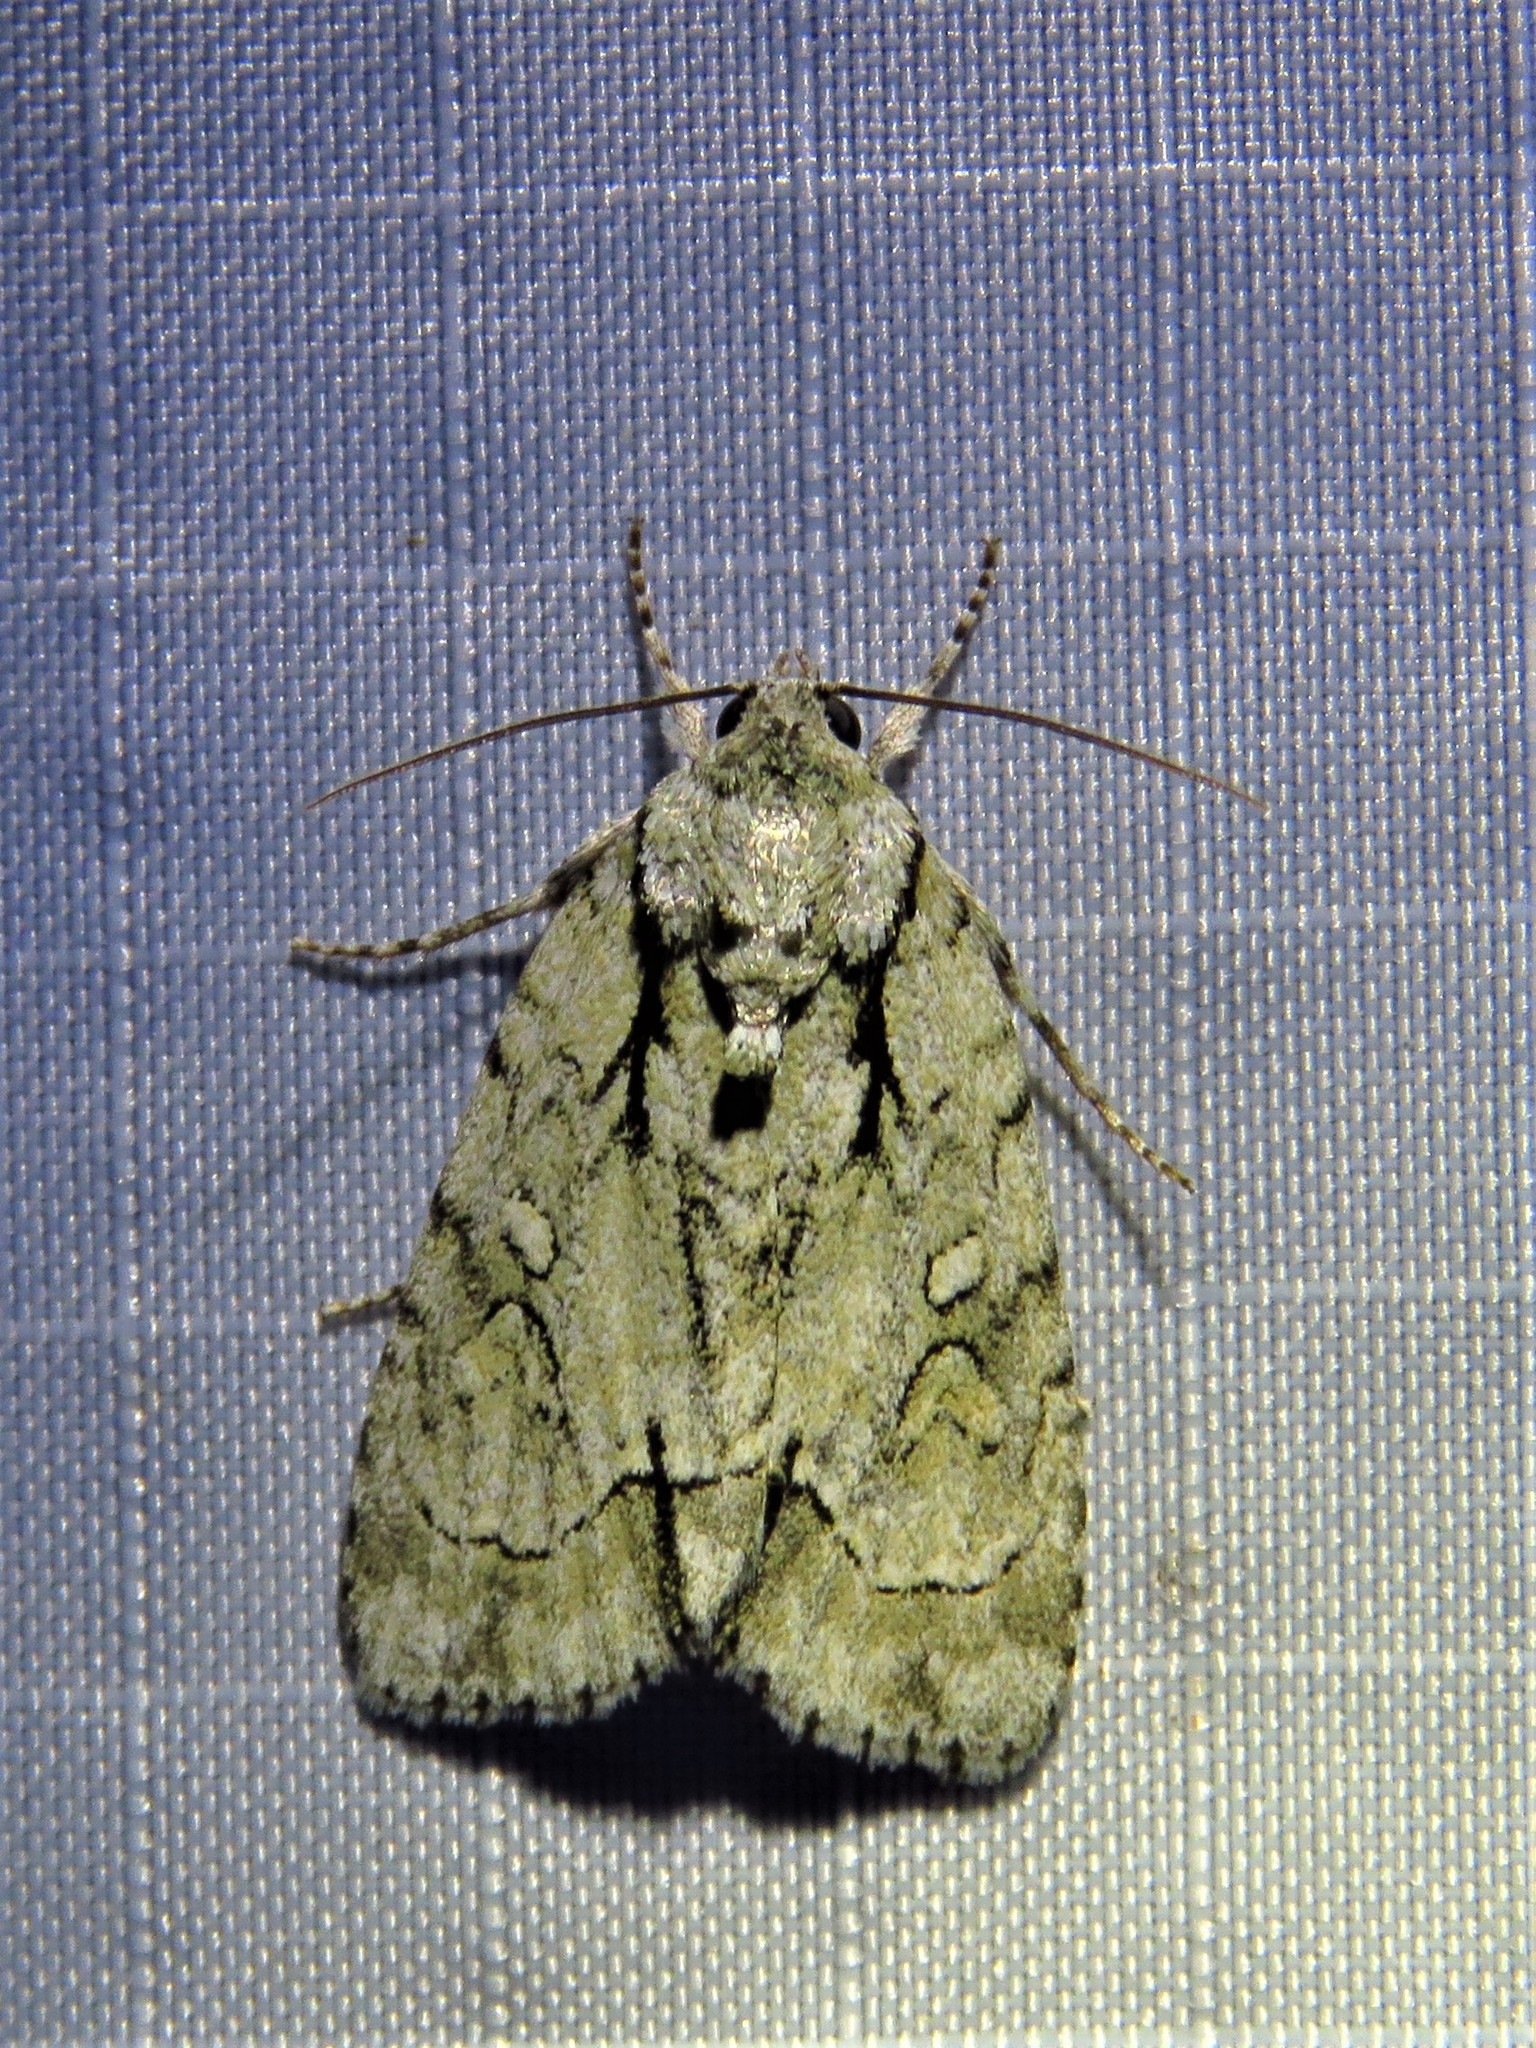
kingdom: Animalia
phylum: Arthropoda
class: Insecta
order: Lepidoptera
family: Noctuidae
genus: Acronicta
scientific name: Acronicta vinnula
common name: Delightful dagger
